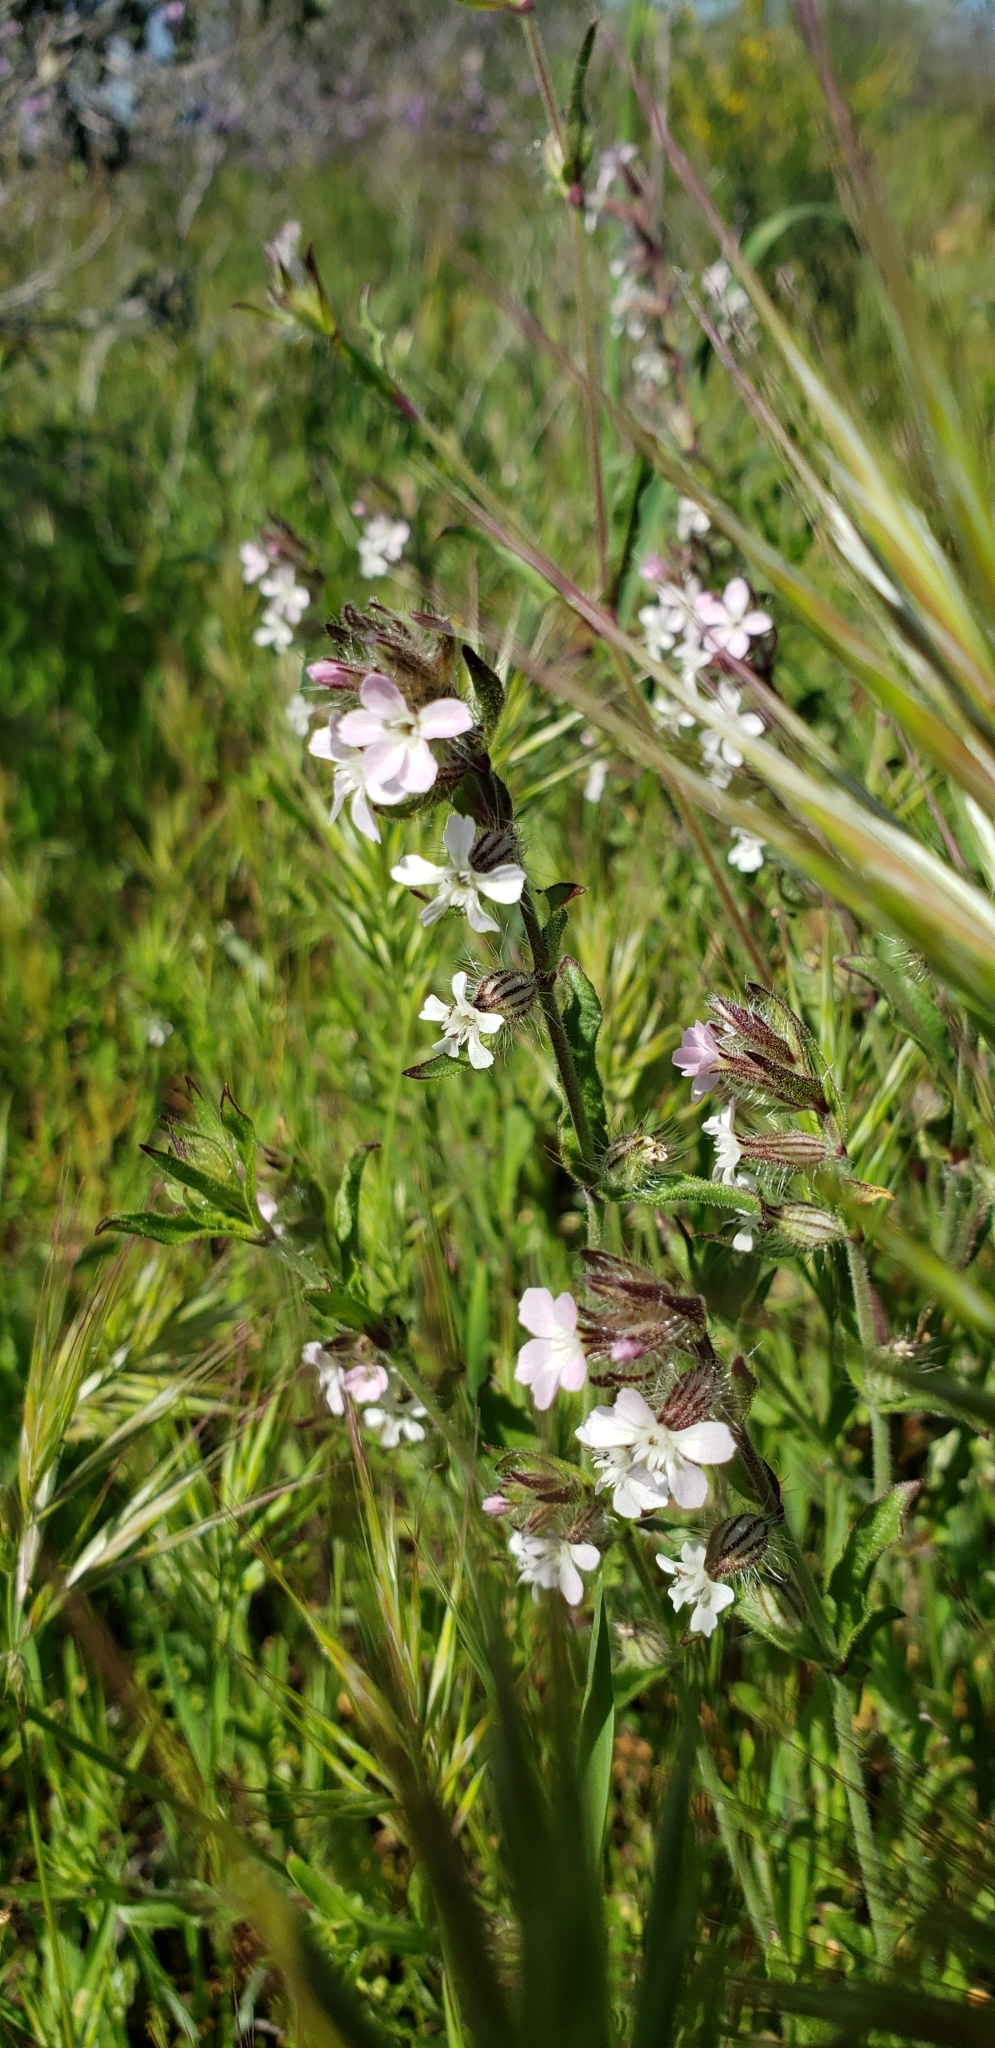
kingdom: Plantae
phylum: Tracheophyta
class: Magnoliopsida
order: Caryophyllales
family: Caryophyllaceae
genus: Silene
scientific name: Silene gallica
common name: Small-flowered catchfly
